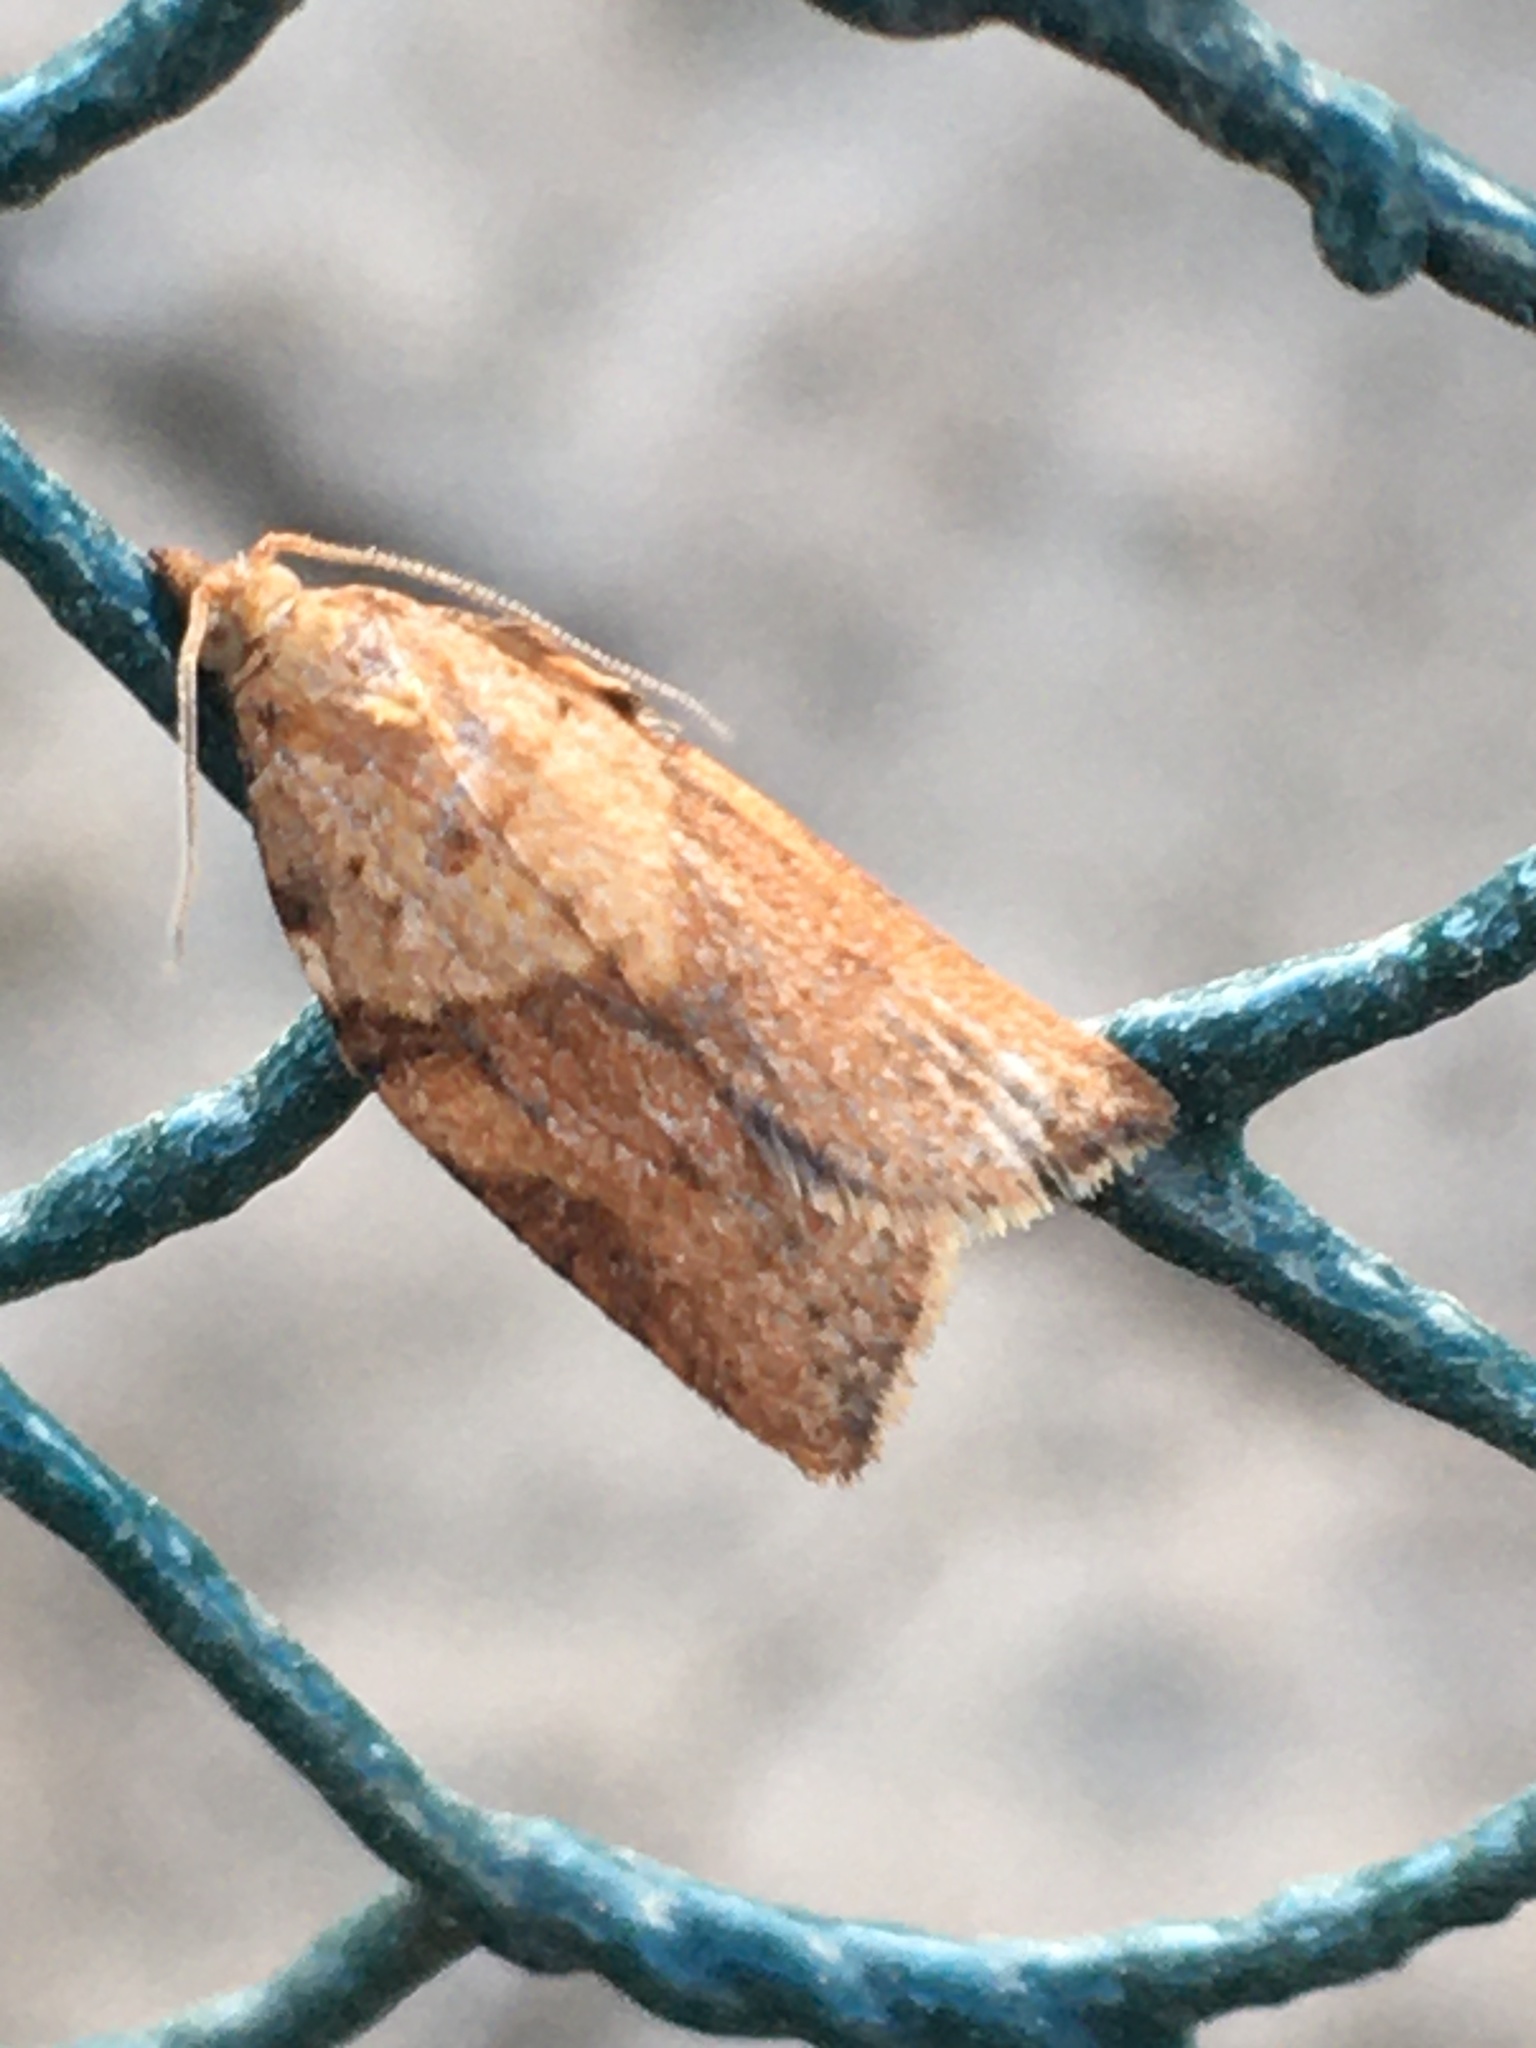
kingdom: Animalia
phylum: Arthropoda
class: Insecta
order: Lepidoptera
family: Tortricidae
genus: Epiphyas
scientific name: Epiphyas postvittana
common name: Light brown apple moth
